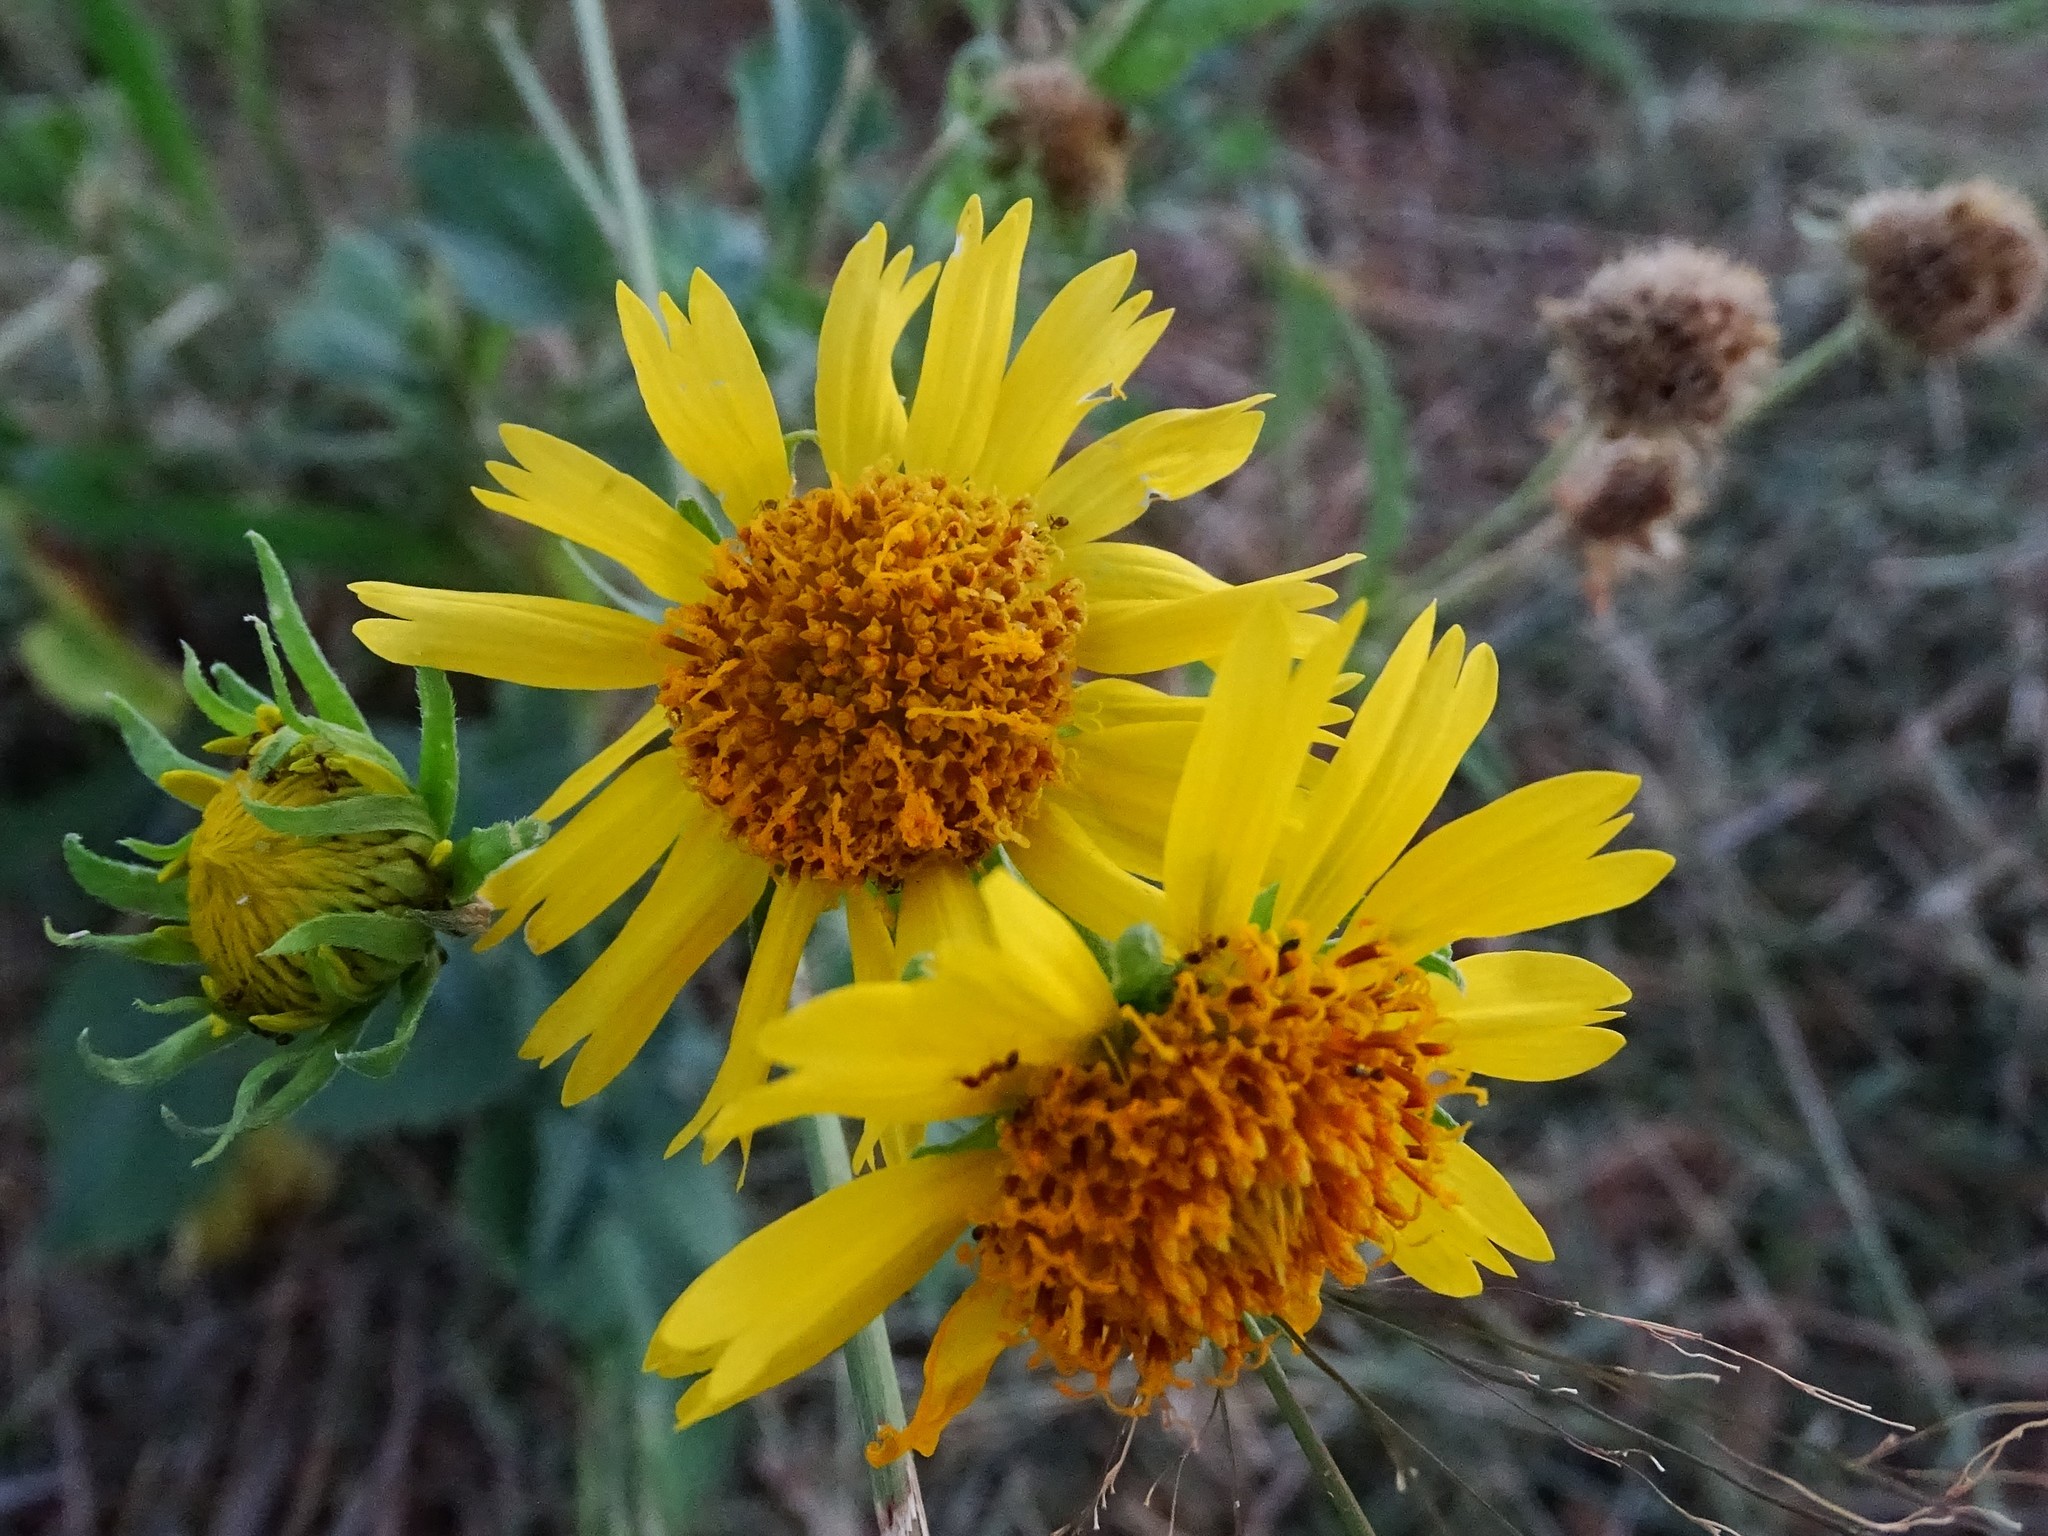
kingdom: Plantae
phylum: Tracheophyta
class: Magnoliopsida
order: Asterales
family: Asteraceae
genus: Verbesina
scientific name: Verbesina encelioides
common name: Golden crownbeard
